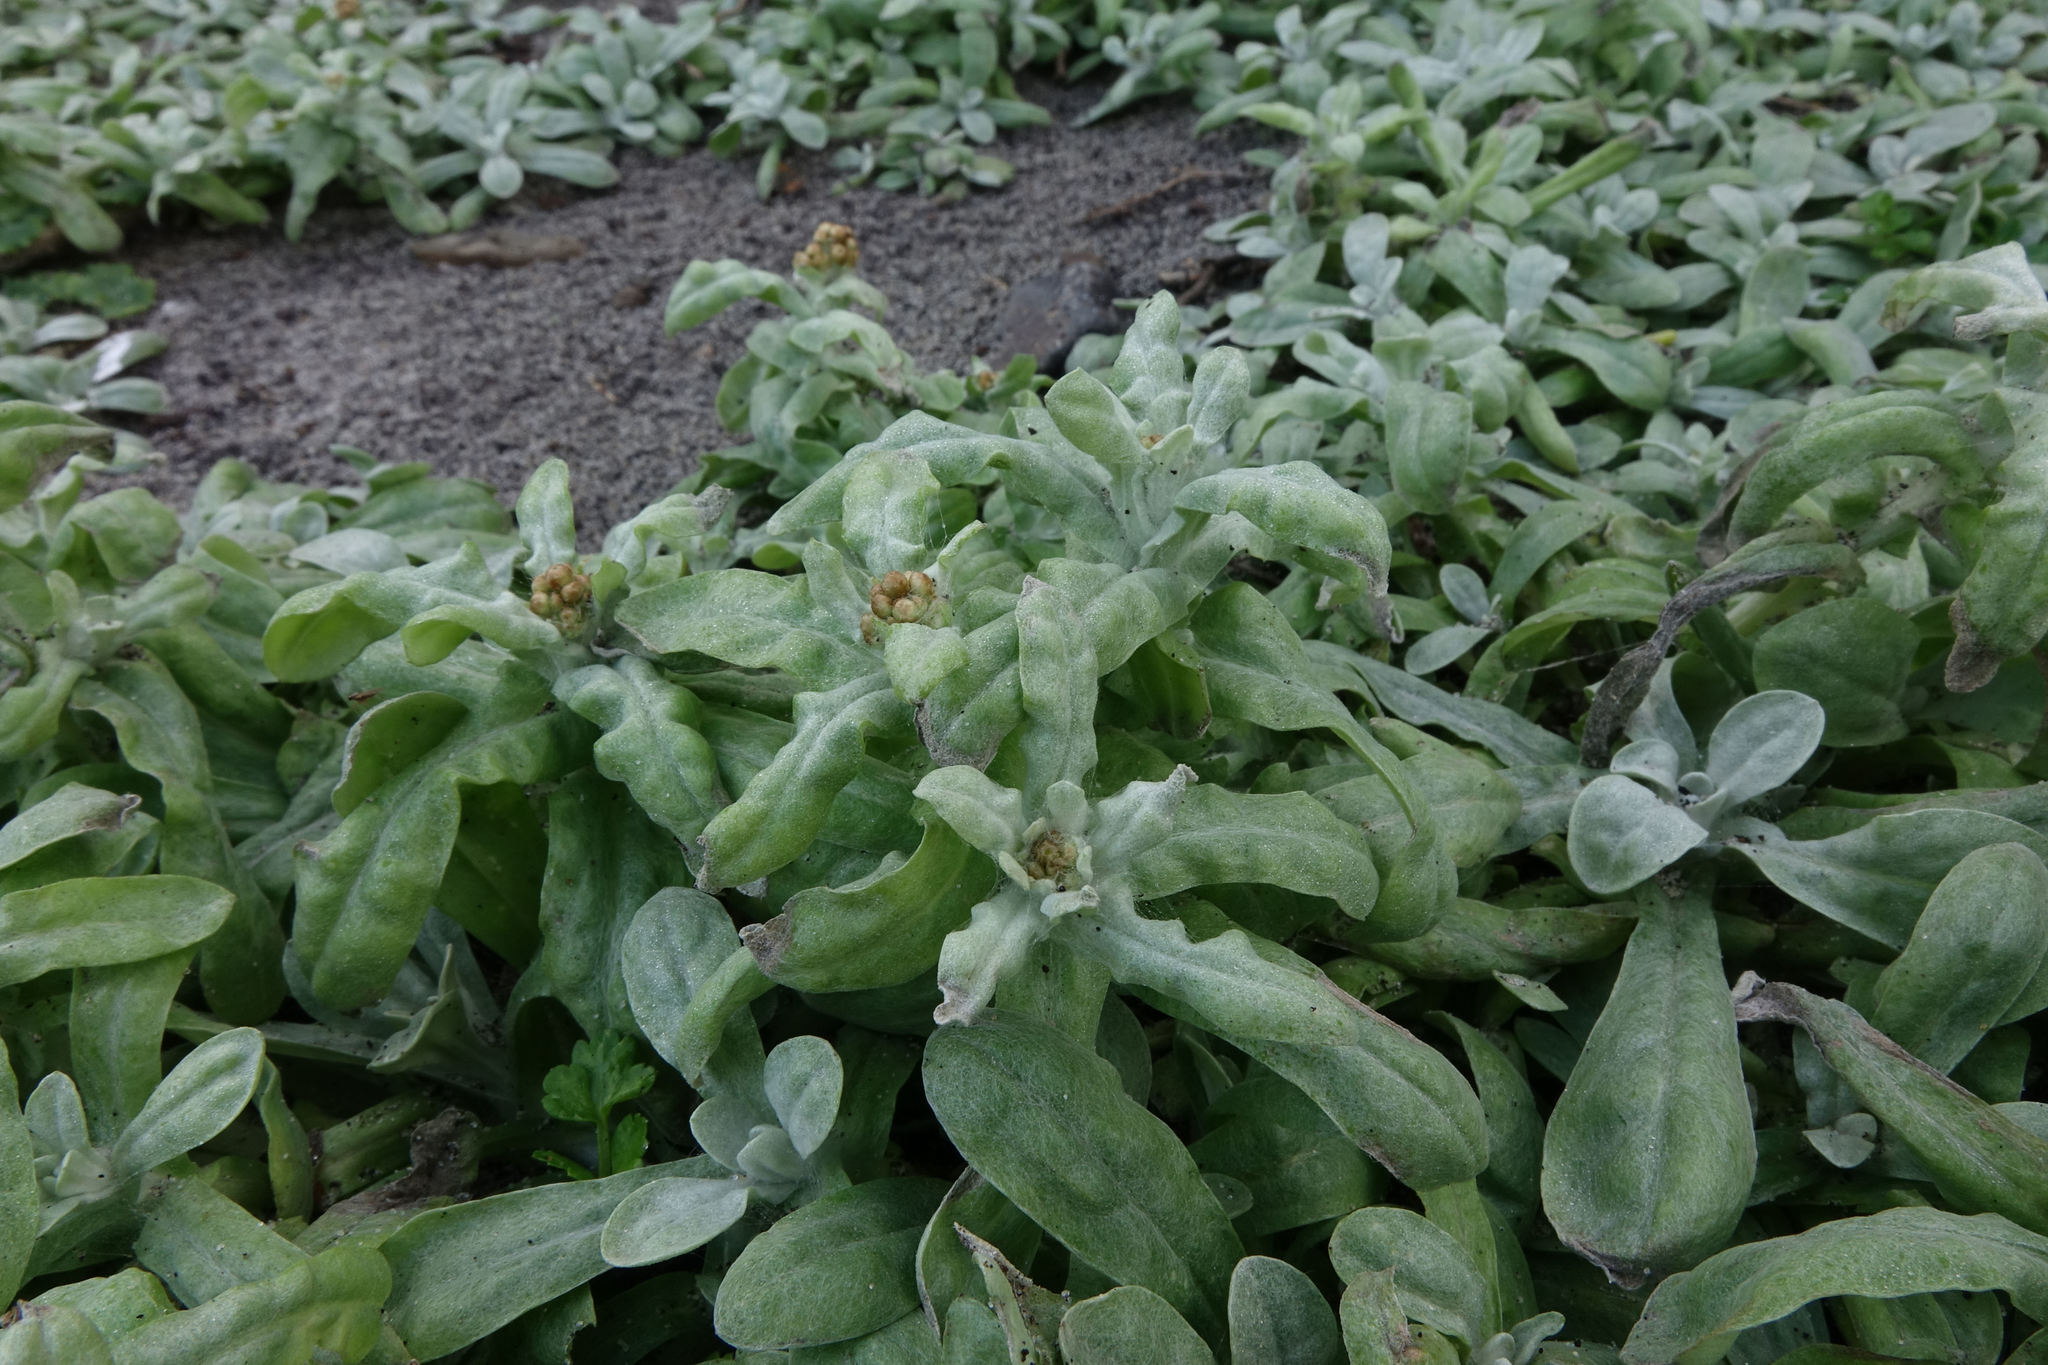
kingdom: Plantae
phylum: Tracheophyta
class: Magnoliopsida
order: Asterales
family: Asteraceae
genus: Helichrysum
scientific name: Helichrysum luteoalbum
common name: Daisy
